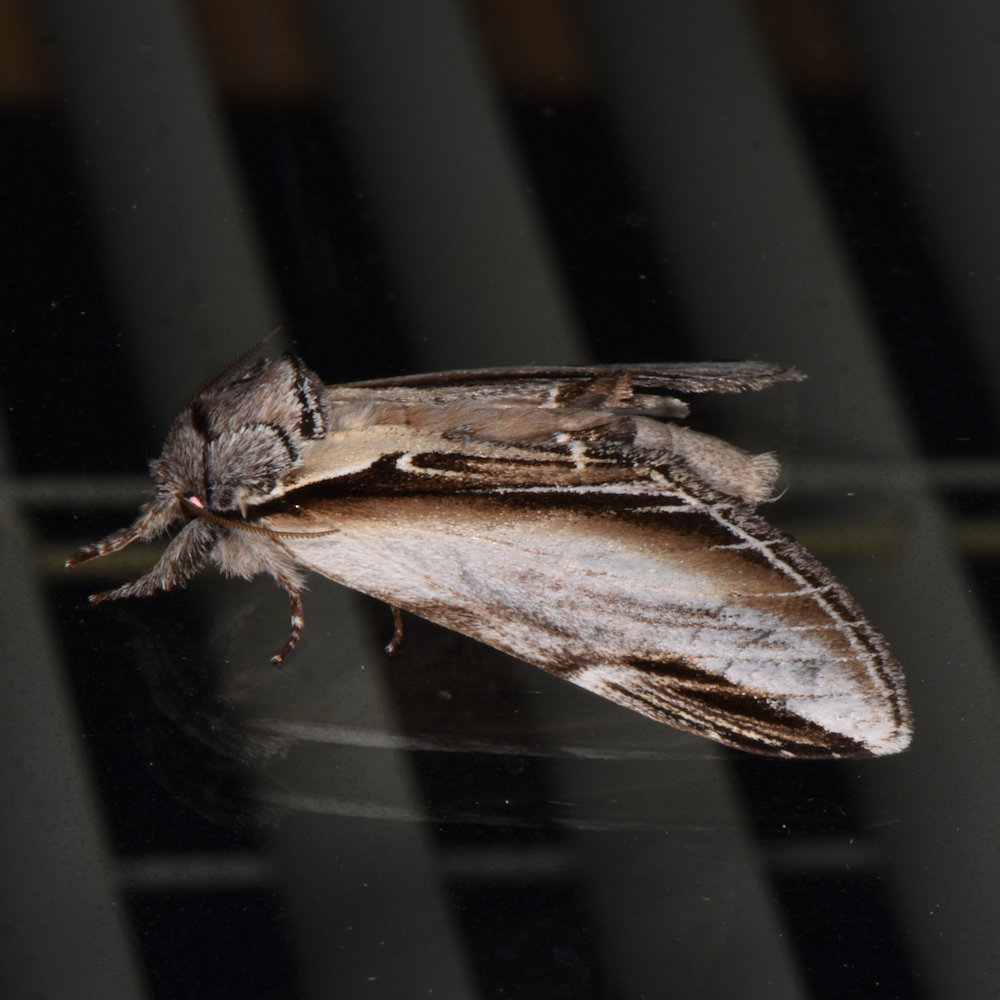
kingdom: Animalia
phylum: Arthropoda
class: Insecta
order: Lepidoptera
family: Notodontidae
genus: Pheosia
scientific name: Pheosia rimosa
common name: Black-rimmed prominent
